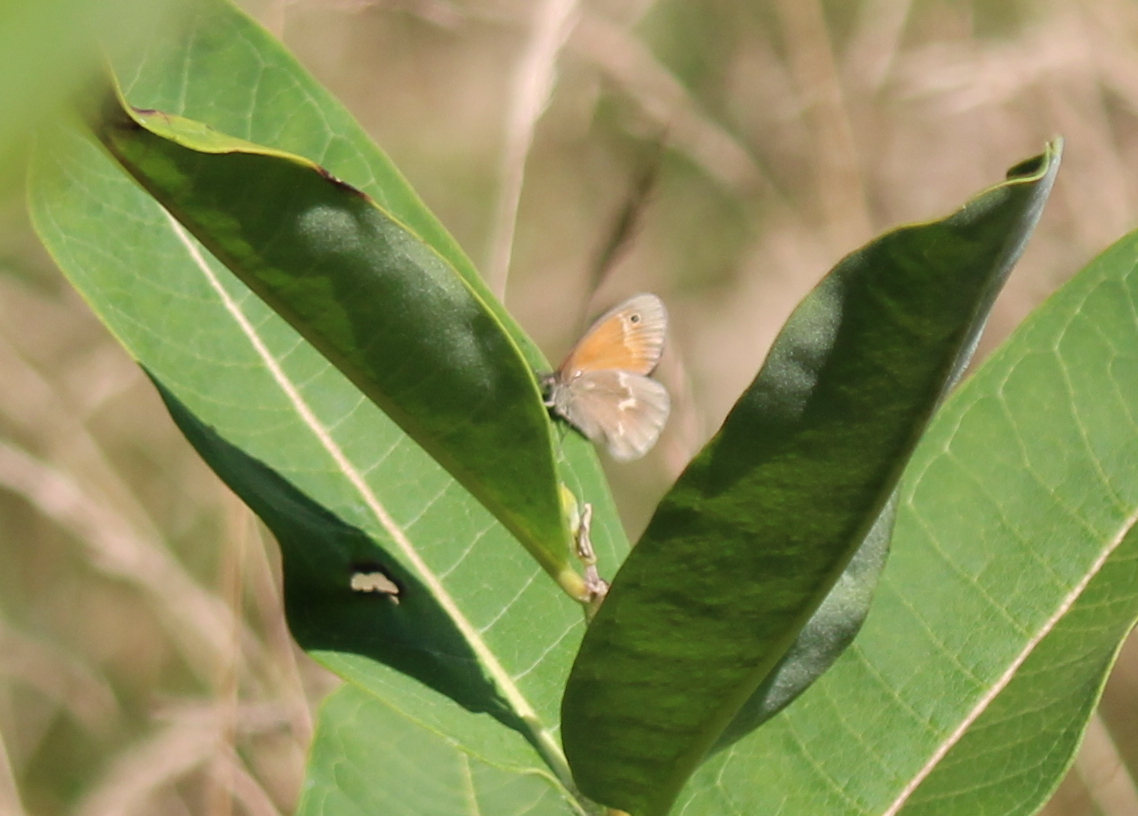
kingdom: Animalia
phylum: Arthropoda
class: Insecta
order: Lepidoptera
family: Nymphalidae
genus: Coenonympha
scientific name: Coenonympha california
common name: Common ringlet
